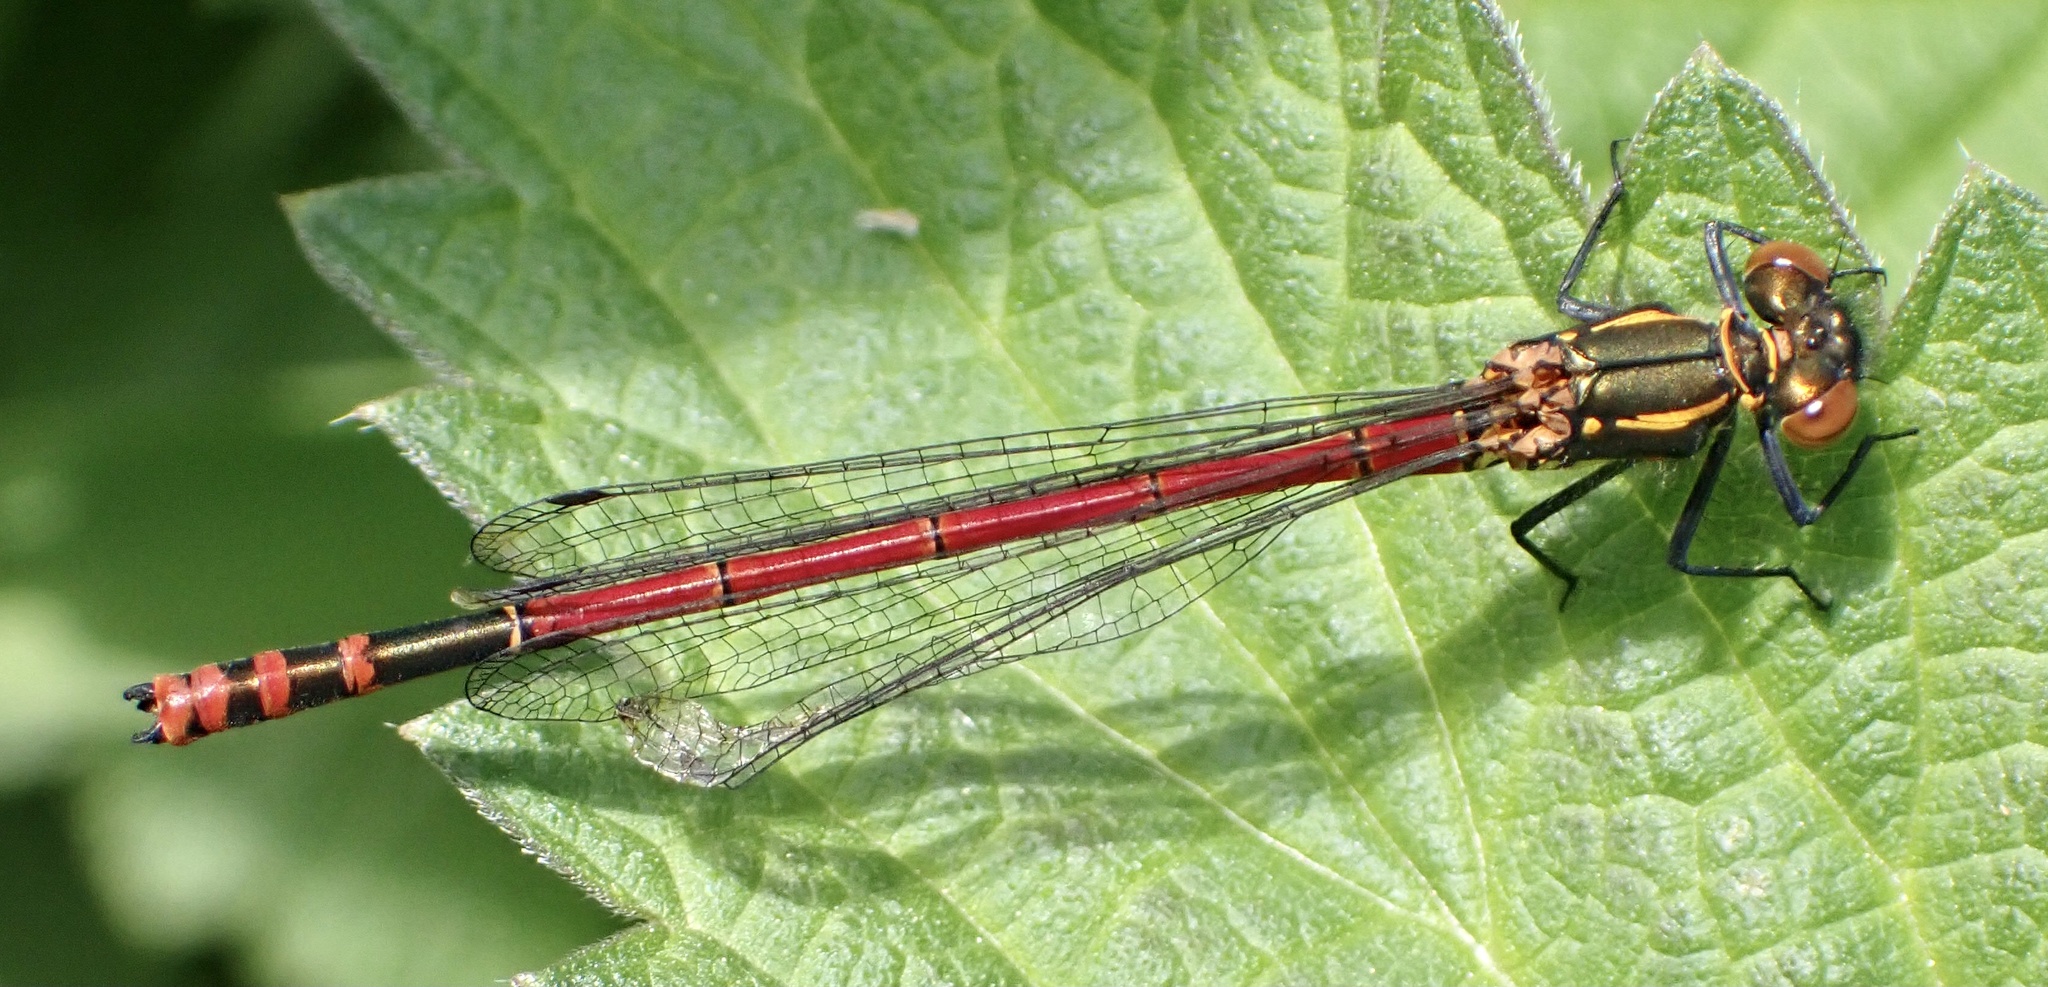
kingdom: Animalia
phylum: Arthropoda
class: Insecta
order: Odonata
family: Coenagrionidae
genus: Pyrrhosoma
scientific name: Pyrrhosoma nymphula
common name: Large red damsel
